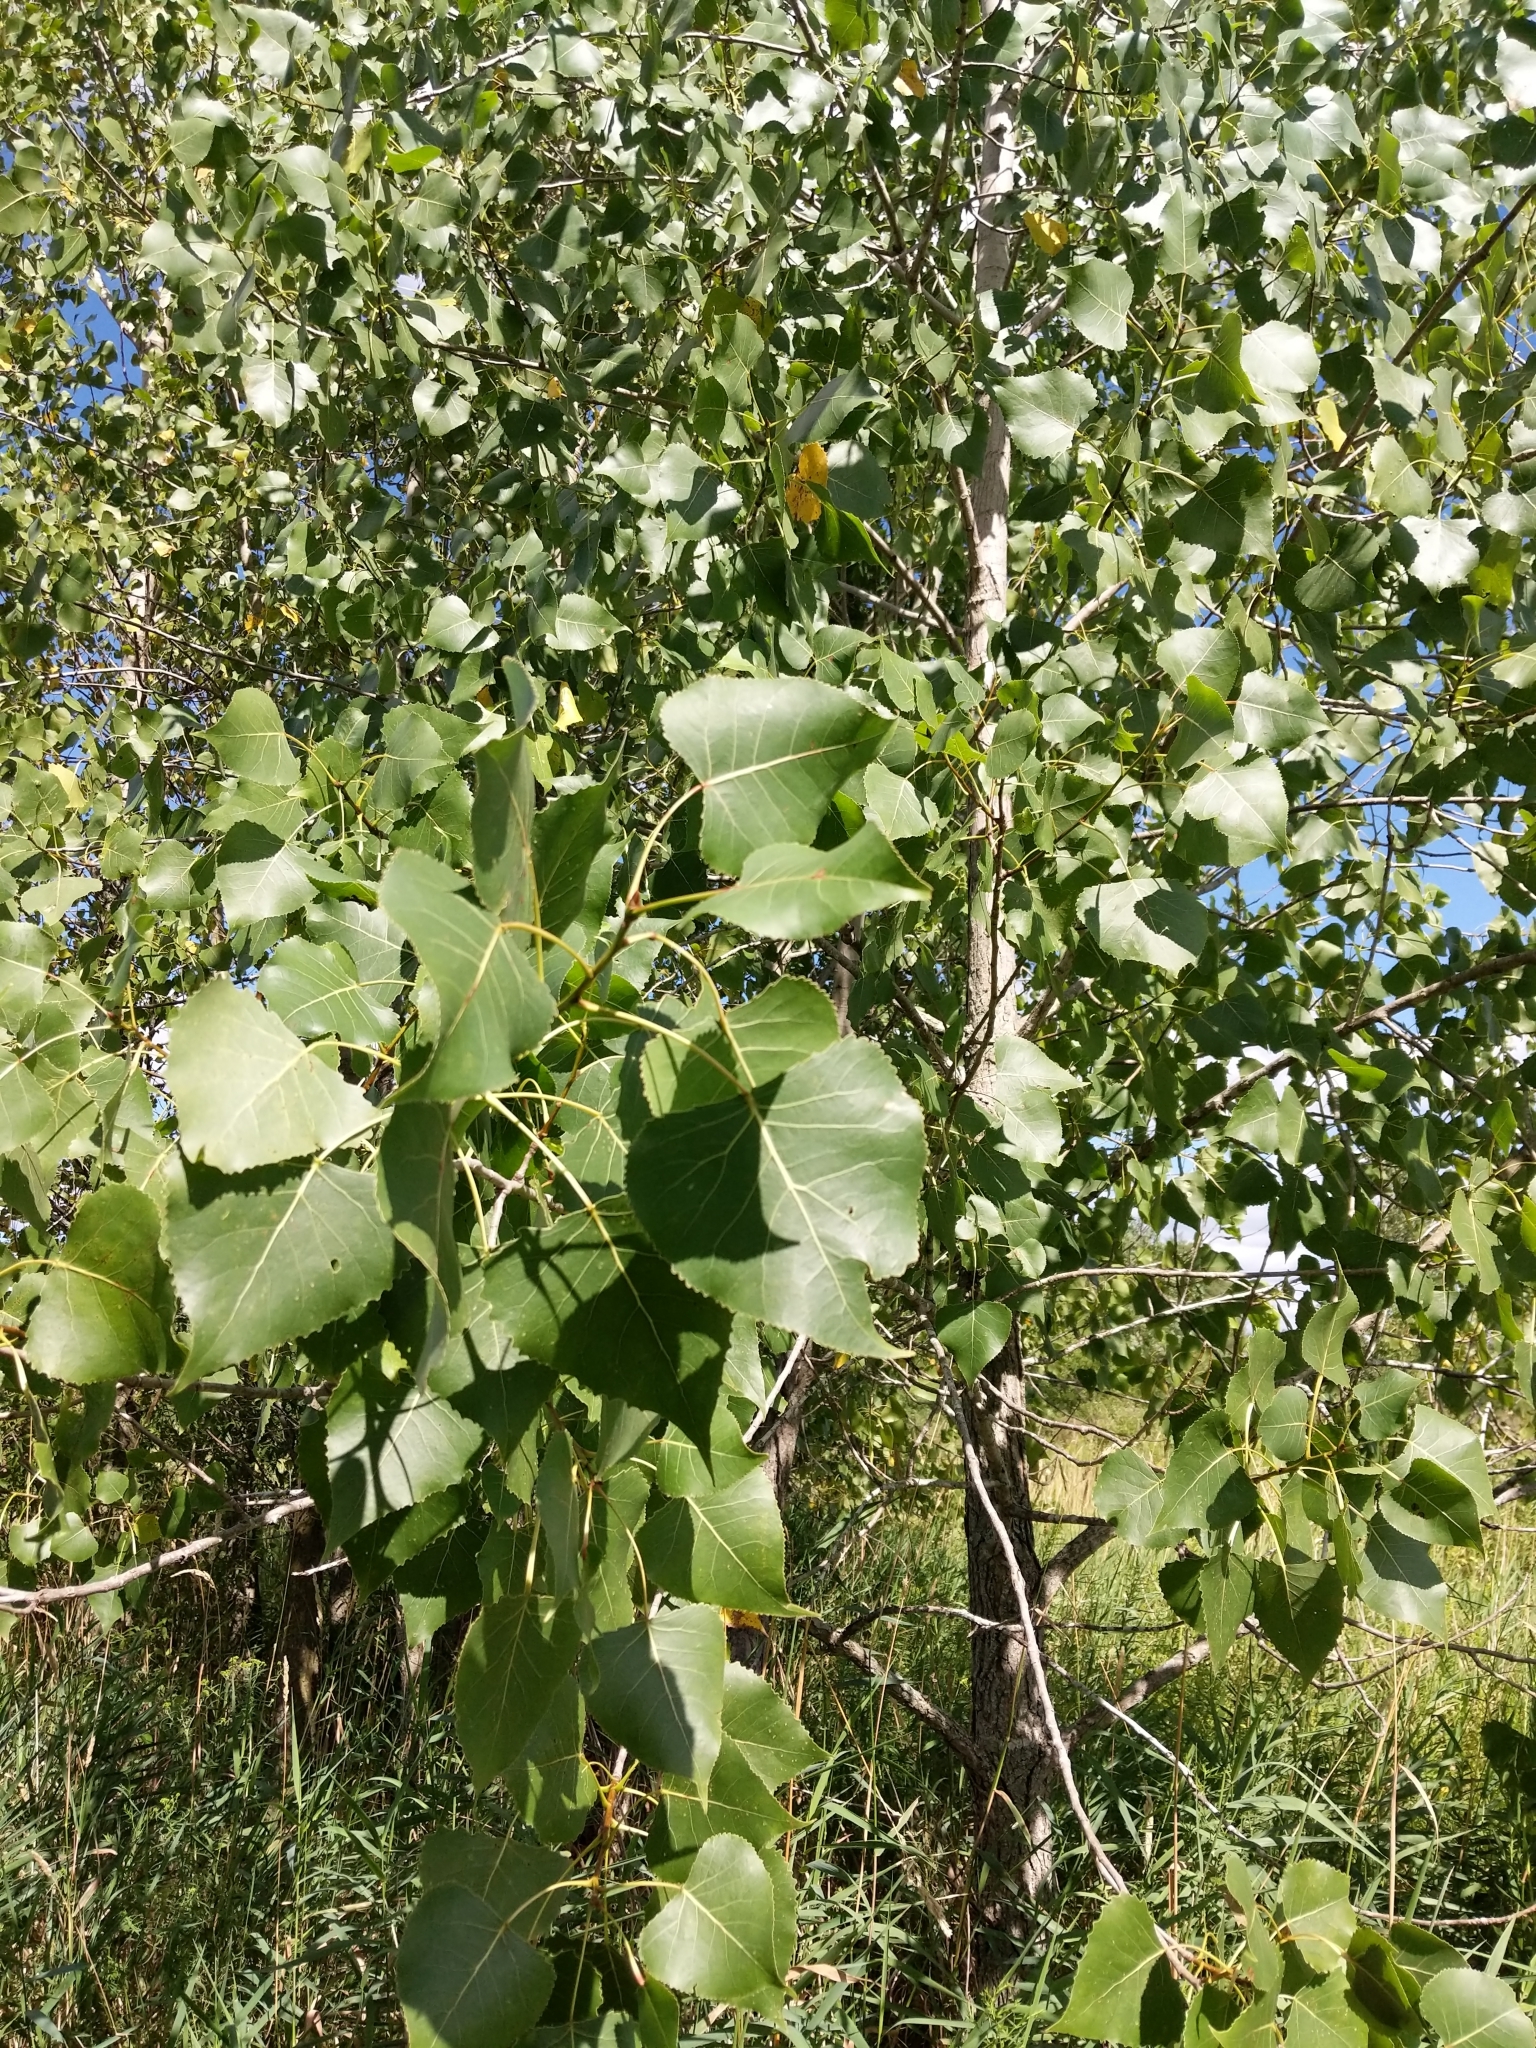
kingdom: Plantae
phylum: Tracheophyta
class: Magnoliopsida
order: Malpighiales
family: Salicaceae
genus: Populus
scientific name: Populus deltoides
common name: Eastern cottonwood
